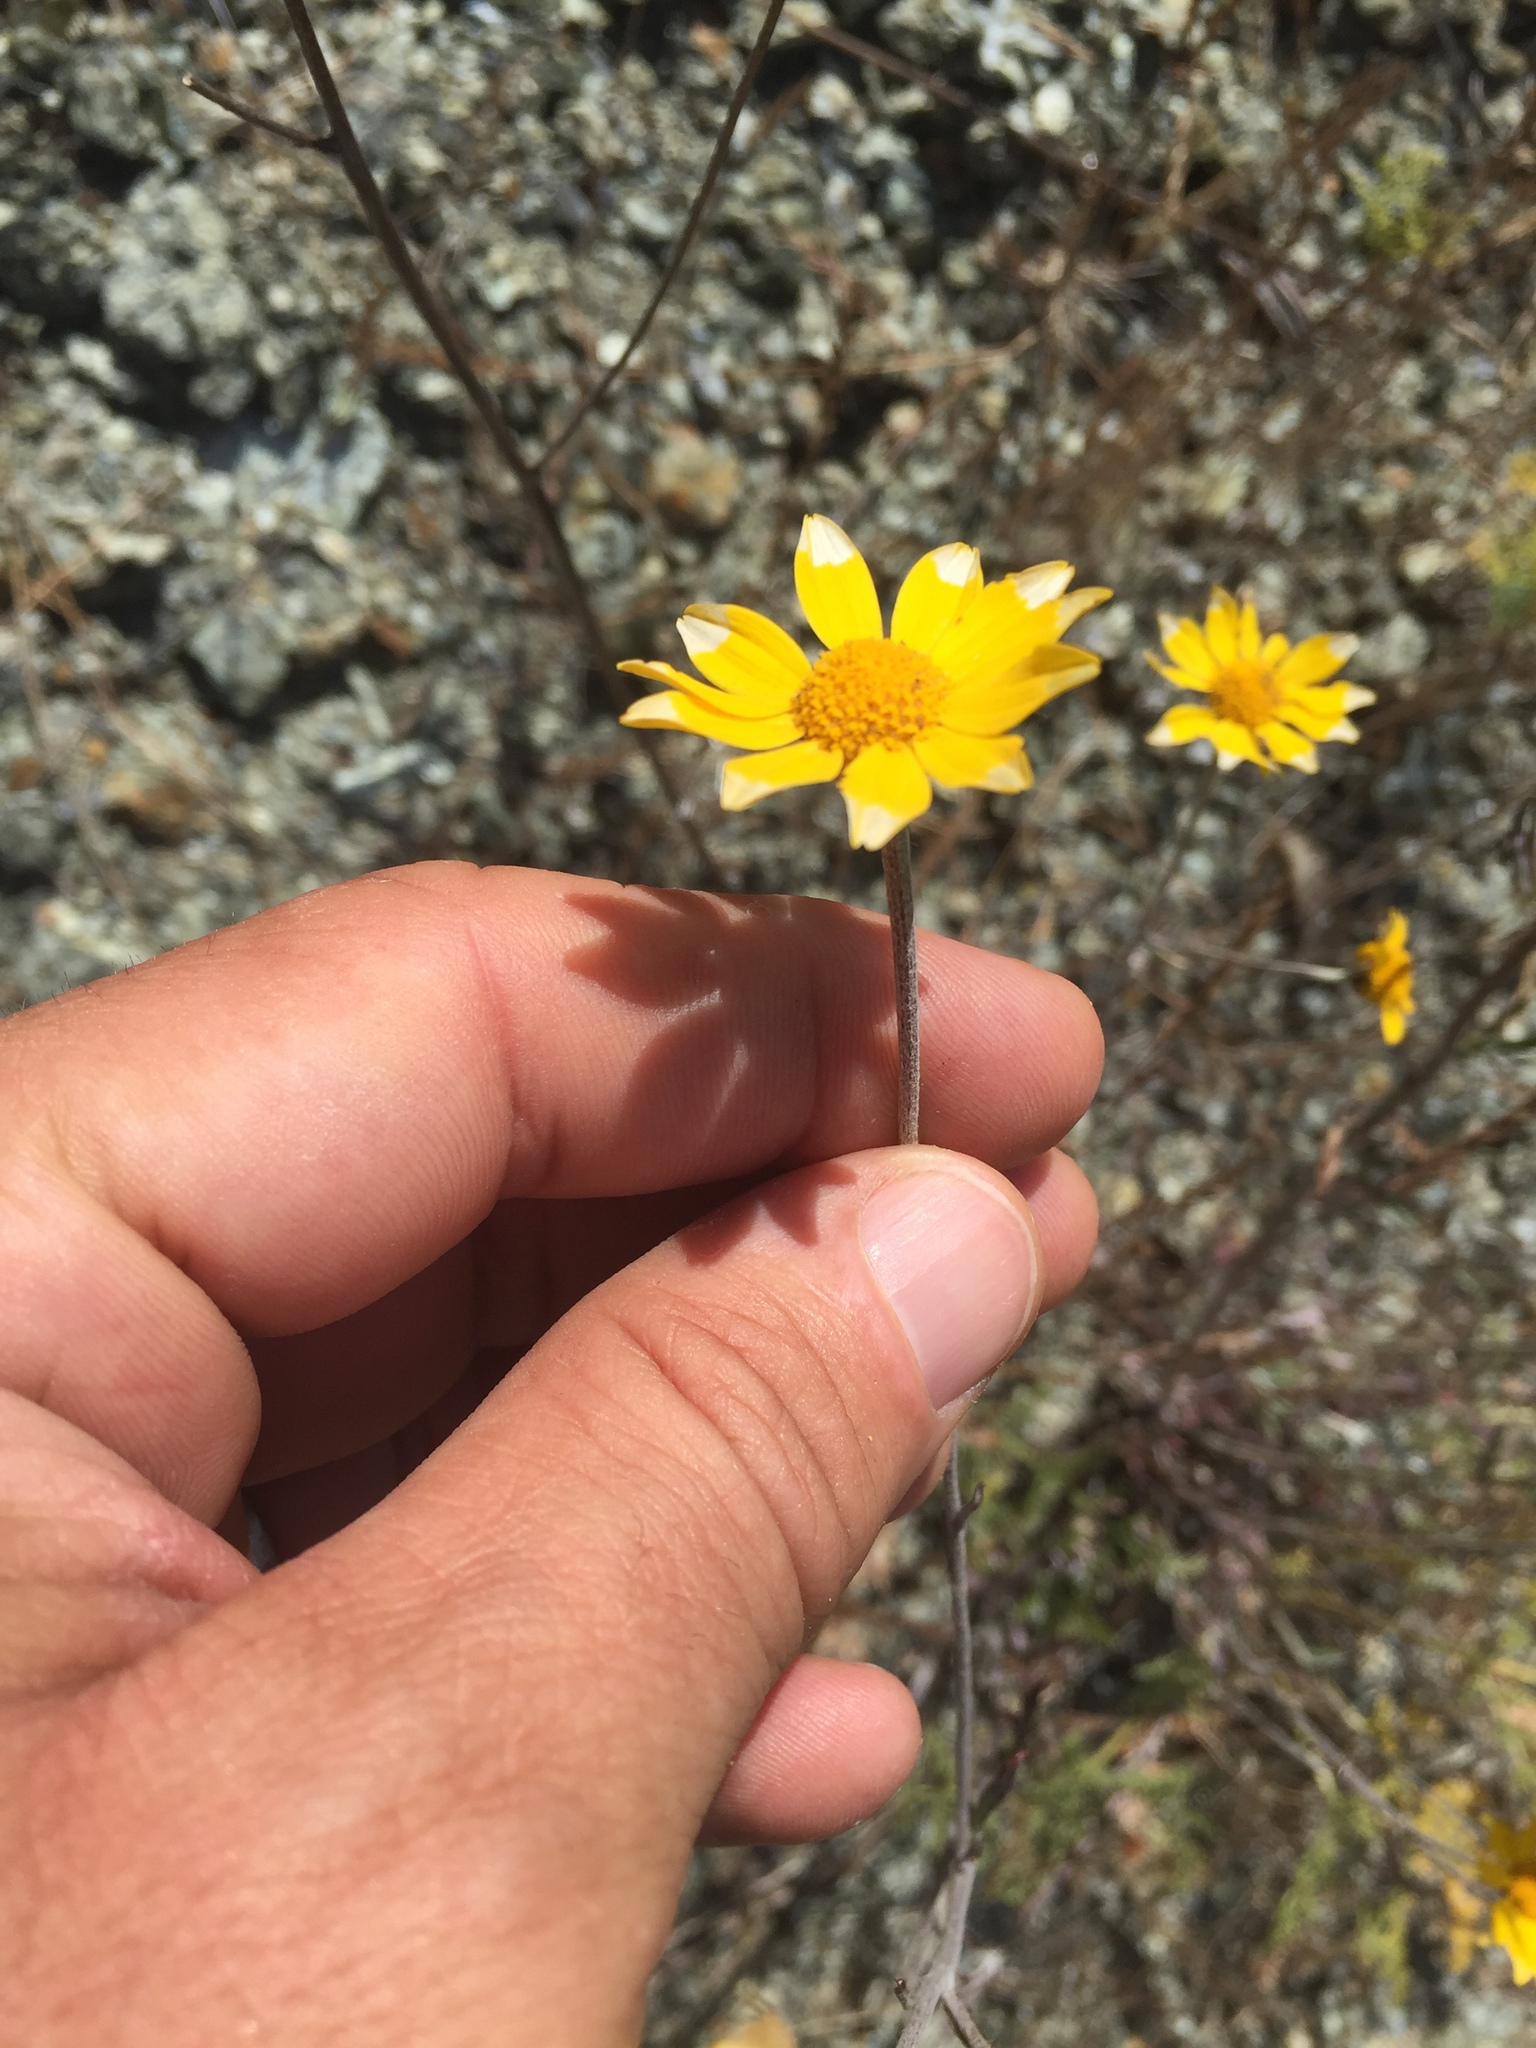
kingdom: Plantae
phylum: Tracheophyta
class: Magnoliopsida
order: Asterales
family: Asteraceae
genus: Eriophyllum
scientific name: Eriophyllum lanatum
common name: Common woolly-sunflower
